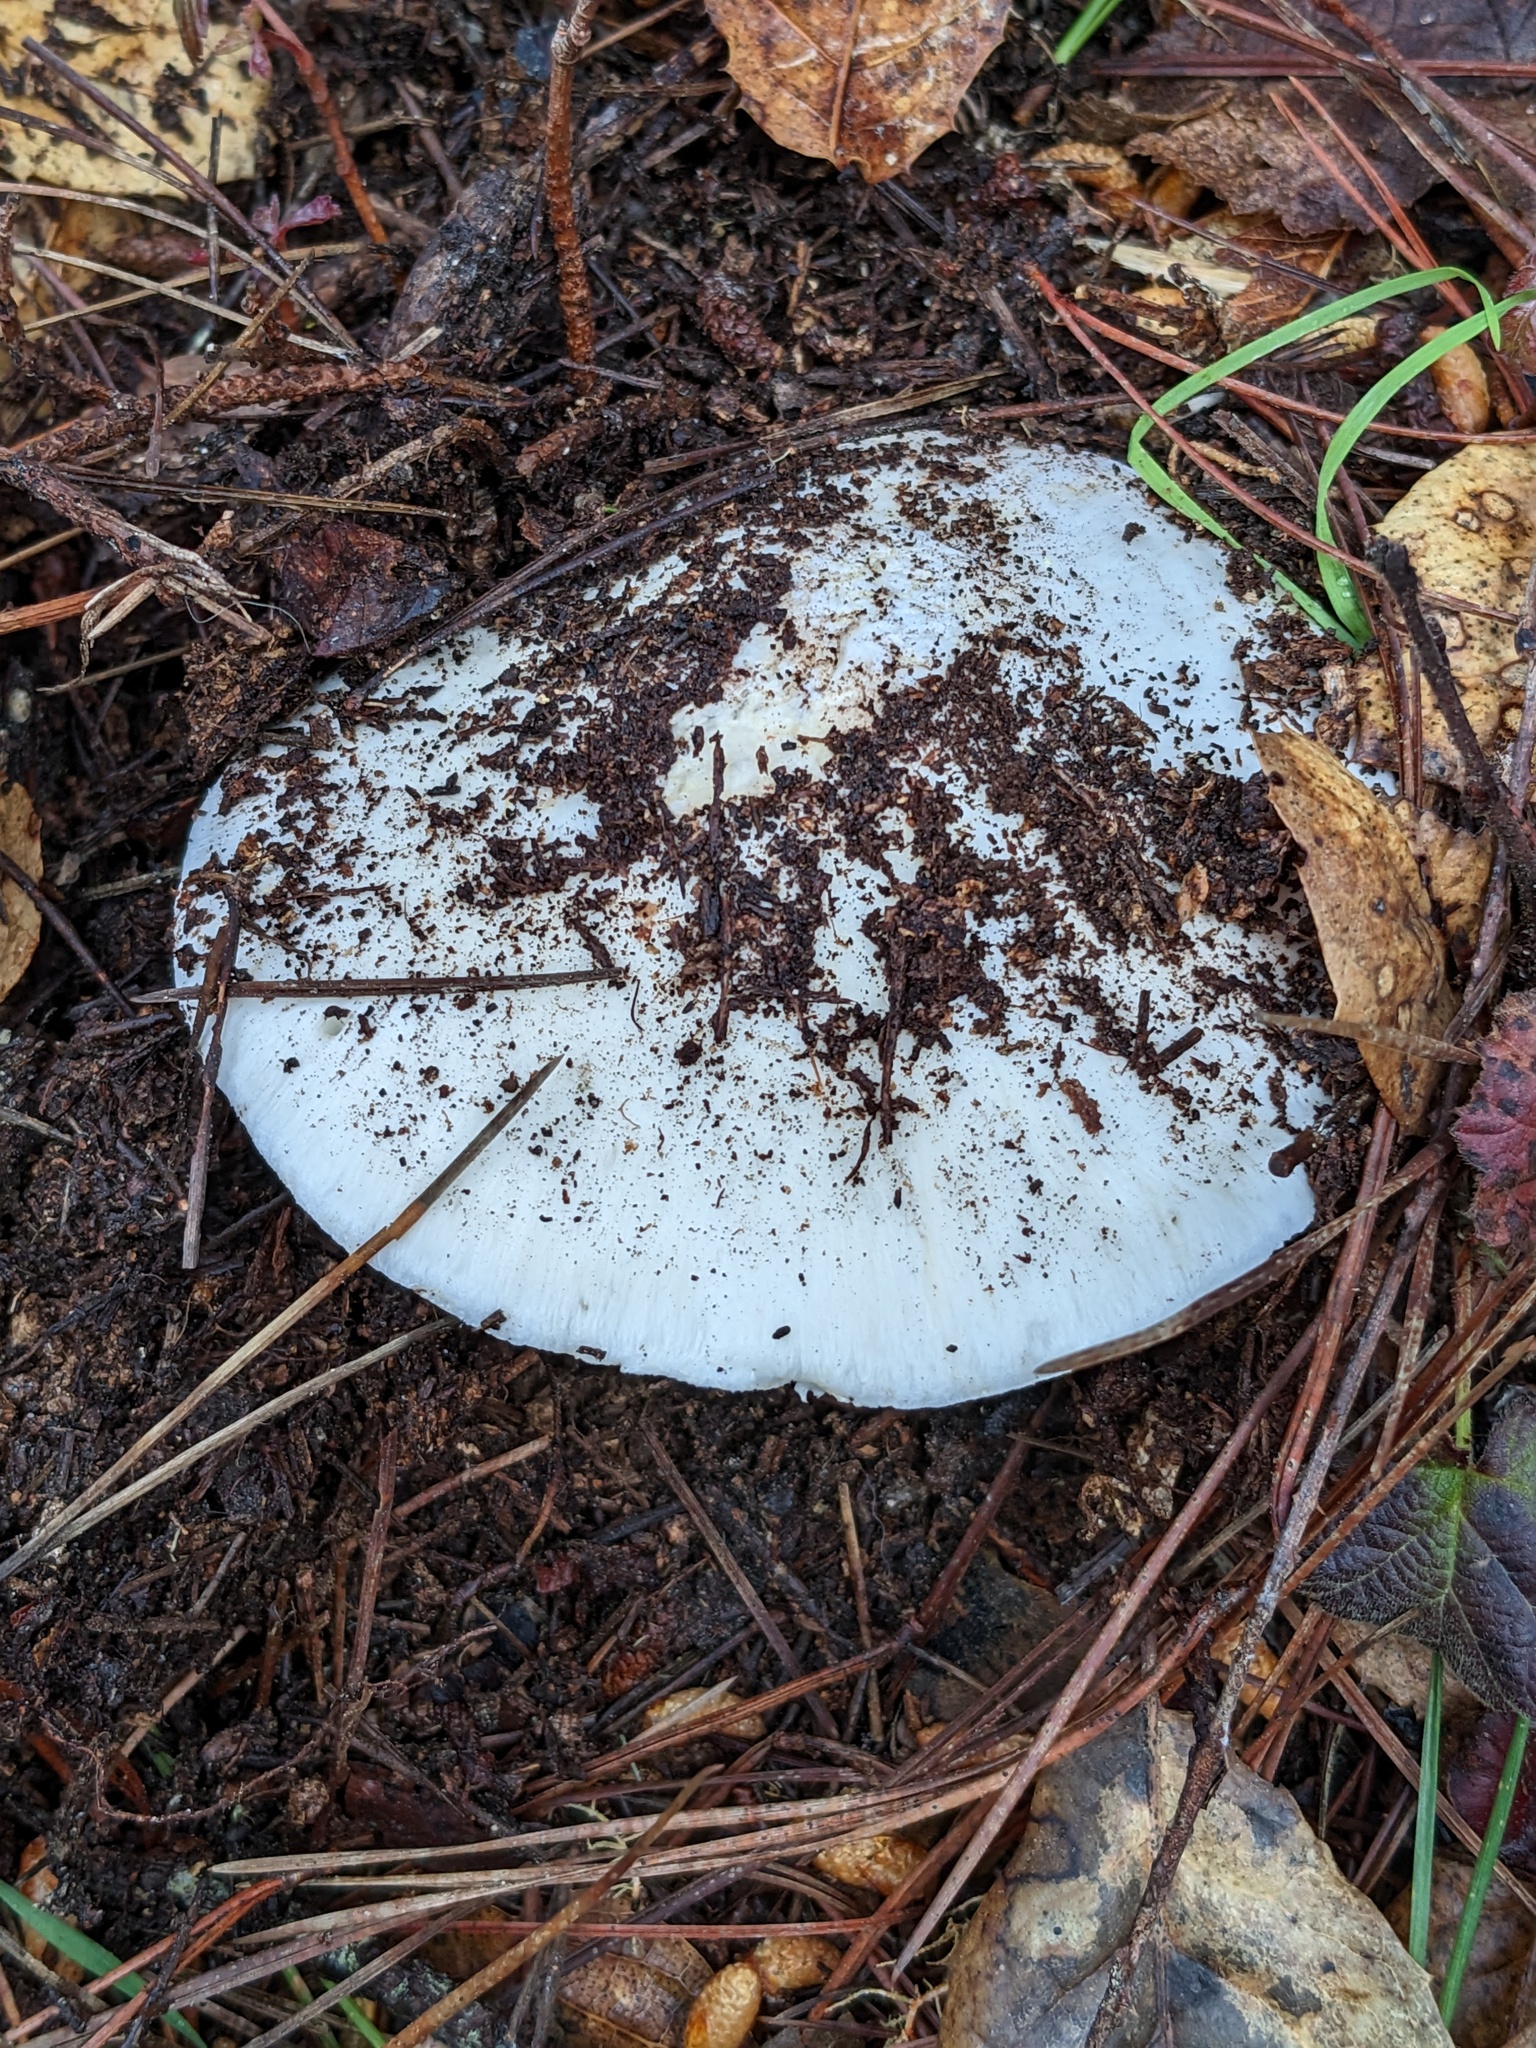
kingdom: Fungi
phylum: Basidiomycota
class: Agaricomycetes
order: Agaricales
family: Amanitaceae
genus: Amanita
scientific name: Amanita ocreata
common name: Western destroying angel
